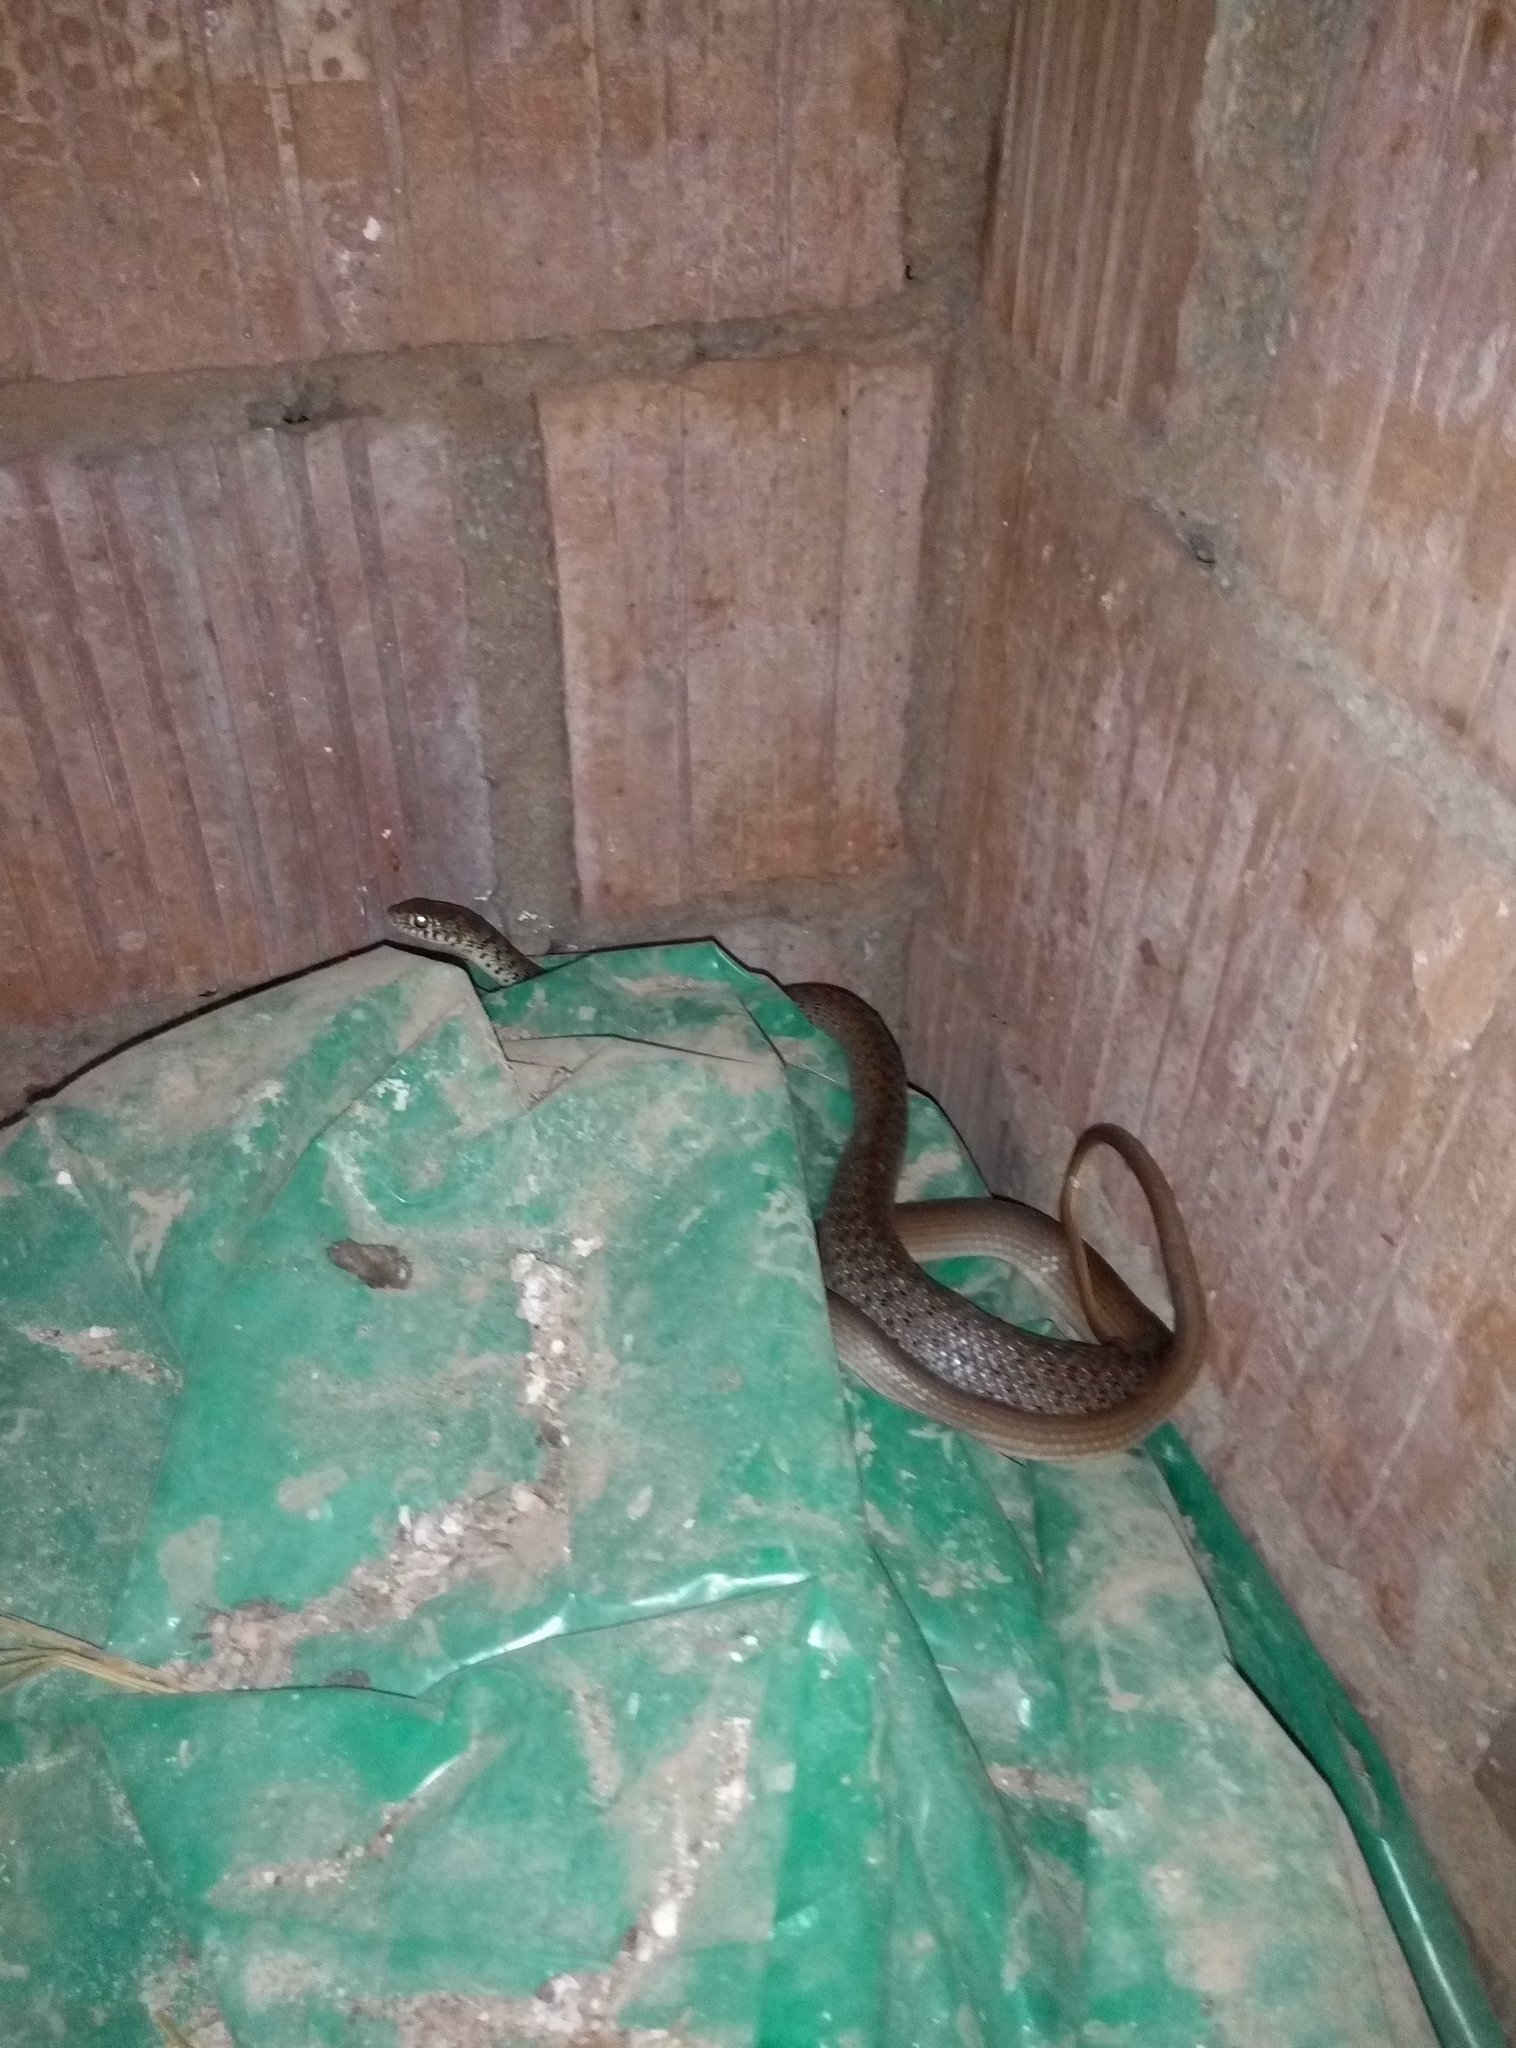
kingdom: Animalia
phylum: Chordata
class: Squamata
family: Colubridae
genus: Hierophis
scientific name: Hierophis gemonensis
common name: Balkan whip snake
